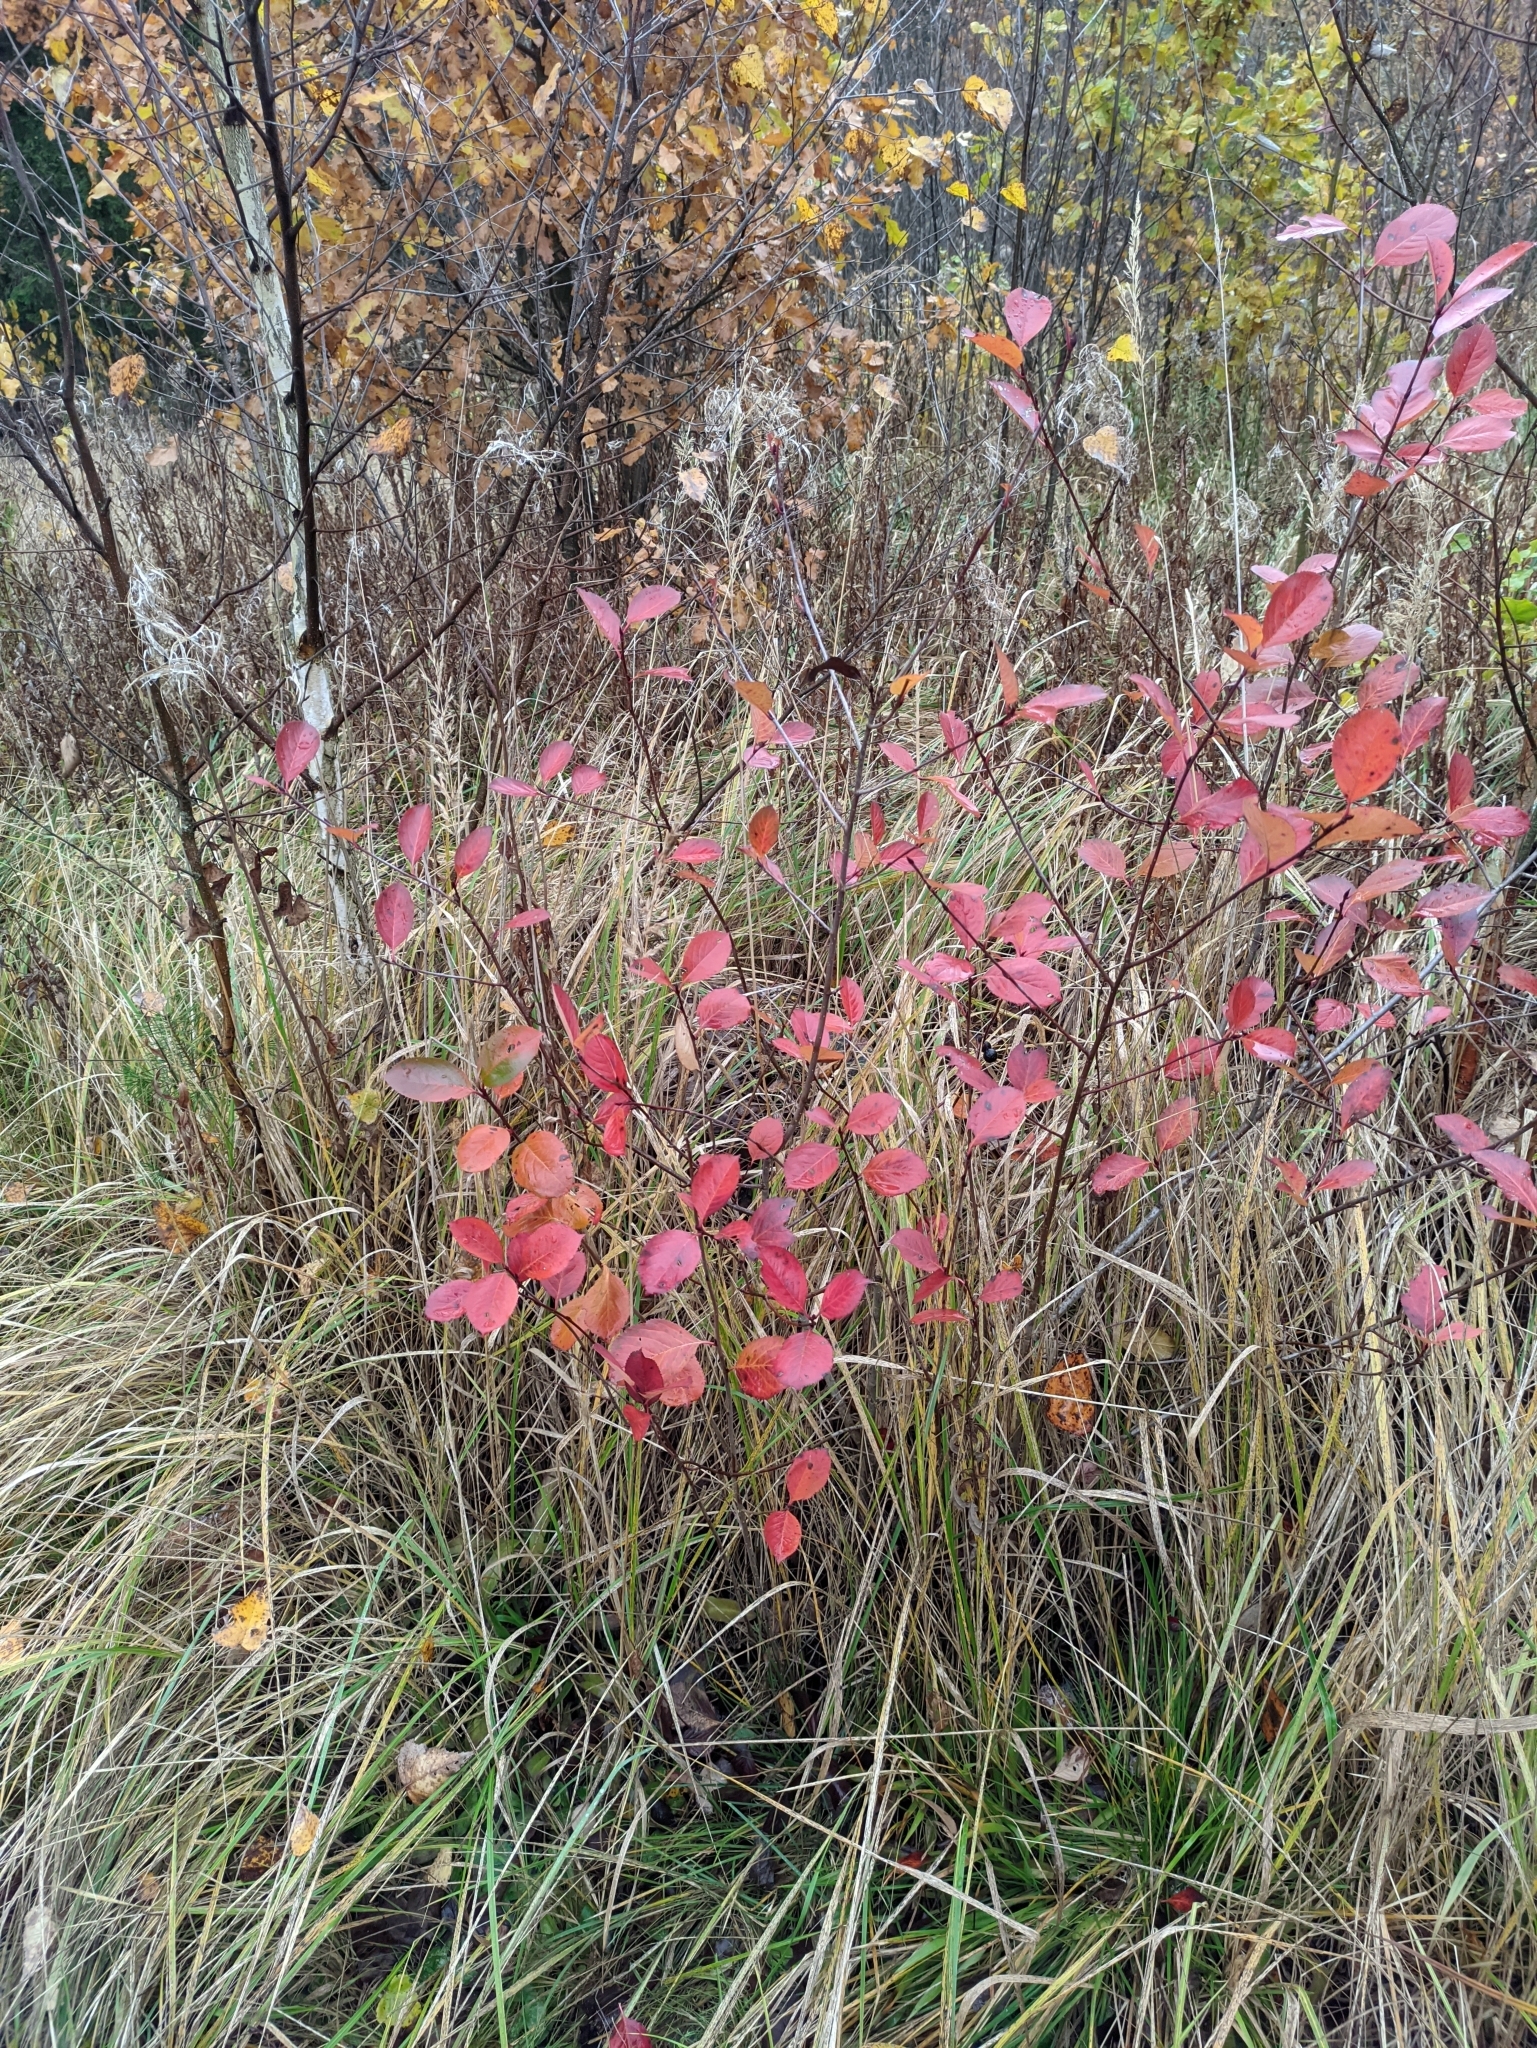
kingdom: Plantae
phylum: Tracheophyta
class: Magnoliopsida
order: Rosales
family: Rosaceae
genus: Sorbaronia
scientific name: Sorbaronia arsenii
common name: Arsène's mountain-ash
